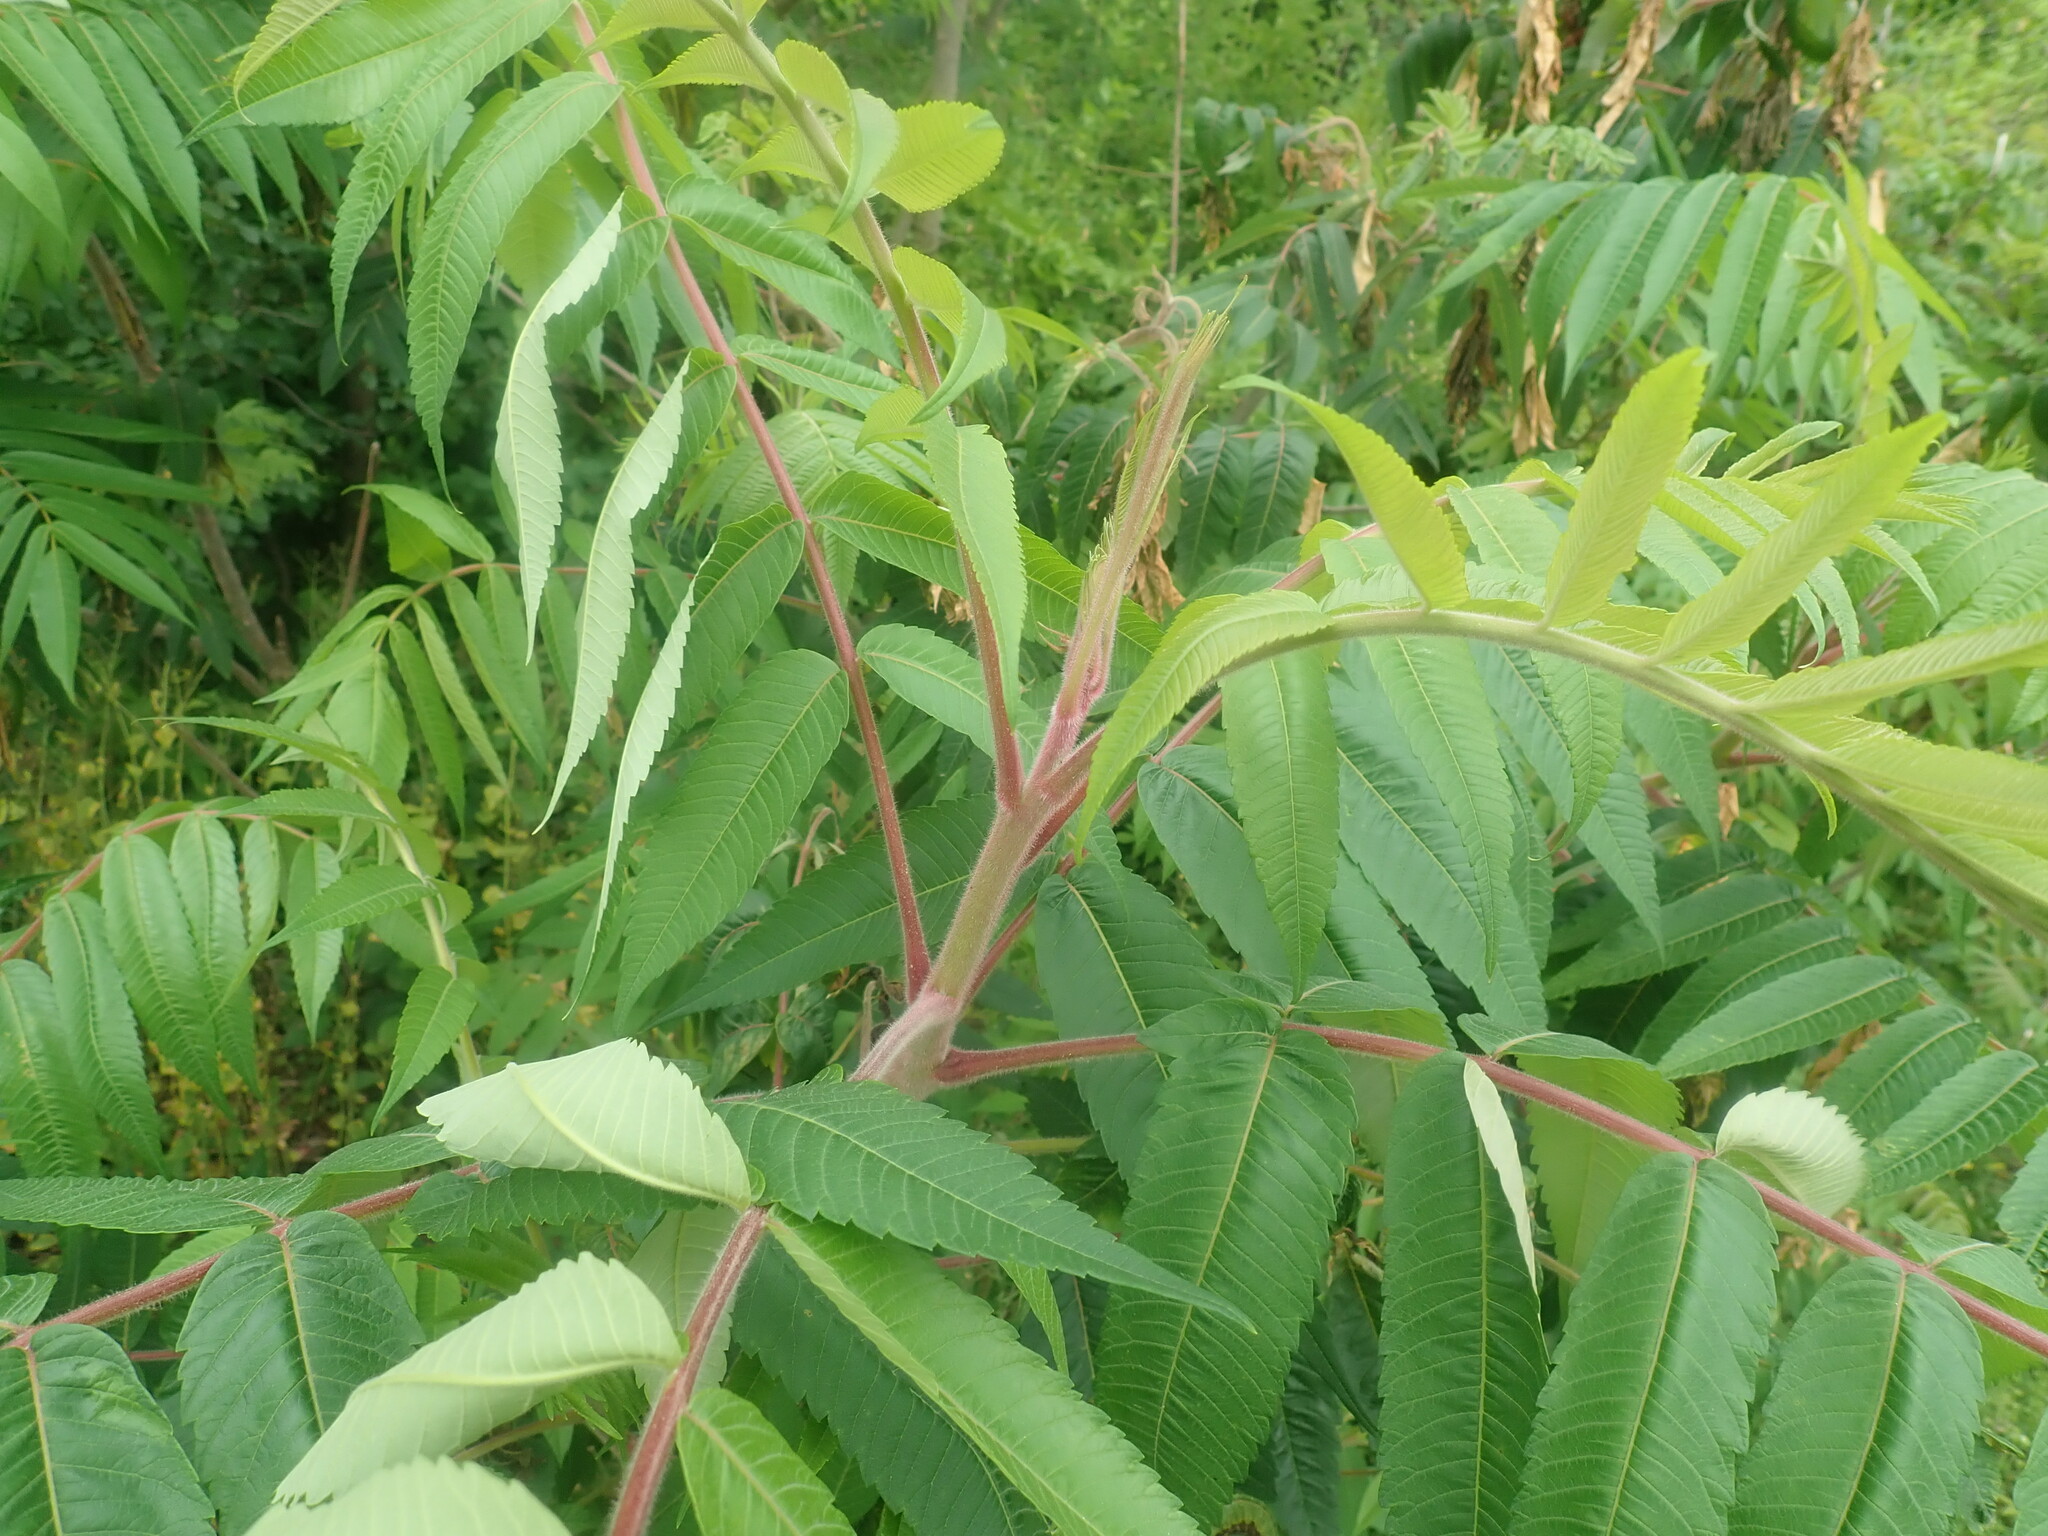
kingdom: Plantae
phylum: Tracheophyta
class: Magnoliopsida
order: Sapindales
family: Anacardiaceae
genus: Rhus
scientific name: Rhus typhina
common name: Staghorn sumac
